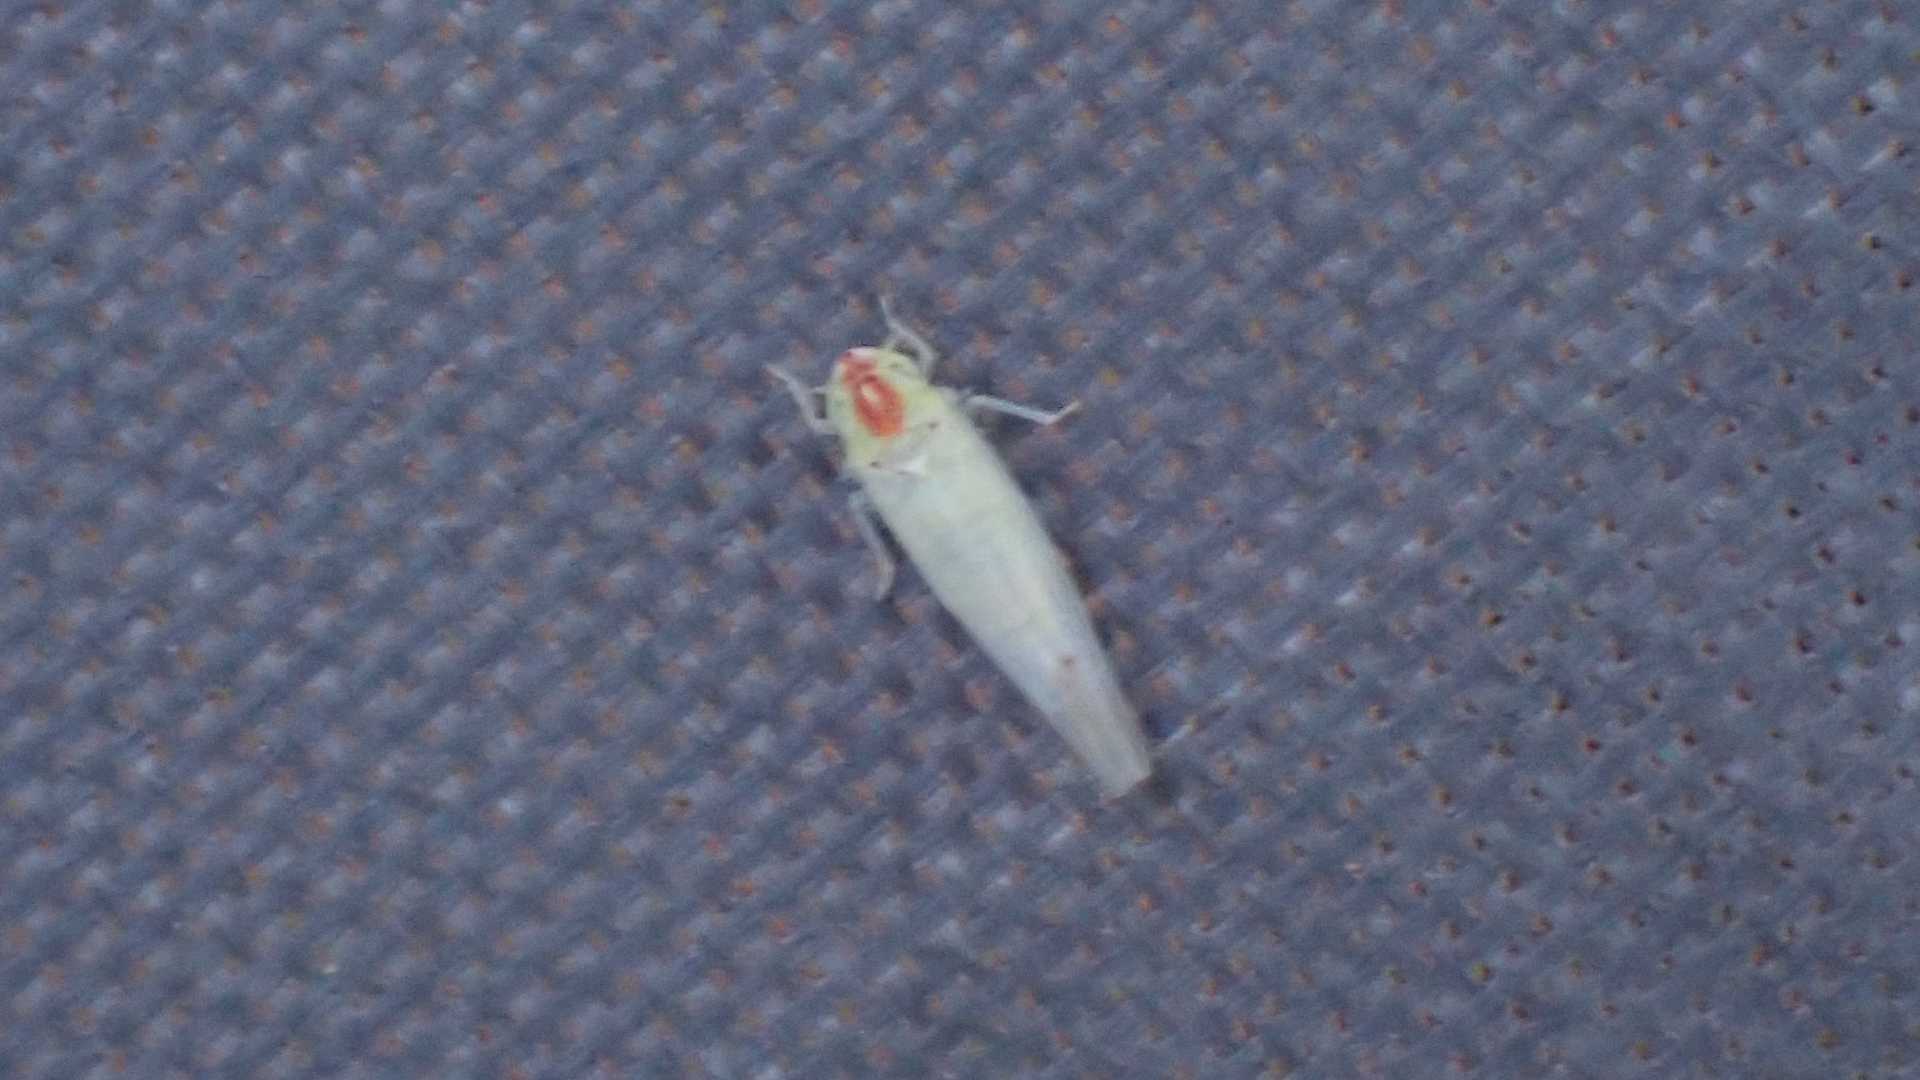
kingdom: Animalia
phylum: Arthropoda
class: Insecta
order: Hemiptera
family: Cicadellidae
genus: Zygina
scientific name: Zygina nivea
